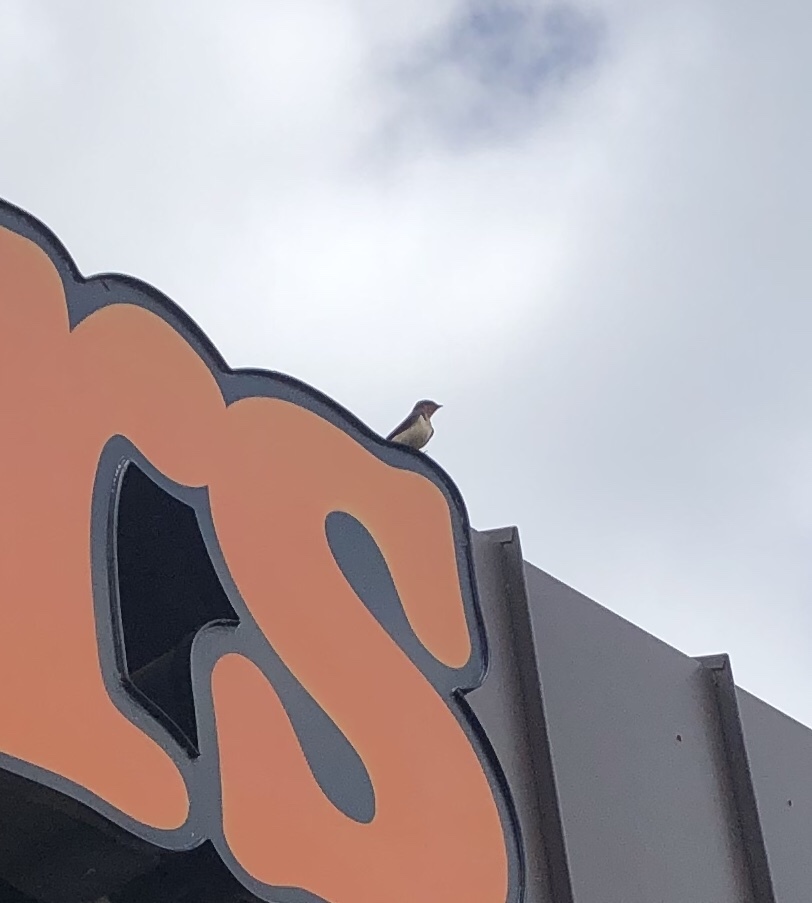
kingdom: Animalia
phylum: Chordata
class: Aves
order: Passeriformes
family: Hirundinidae
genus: Hirundo
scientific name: Hirundo rustica
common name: Barn swallow
